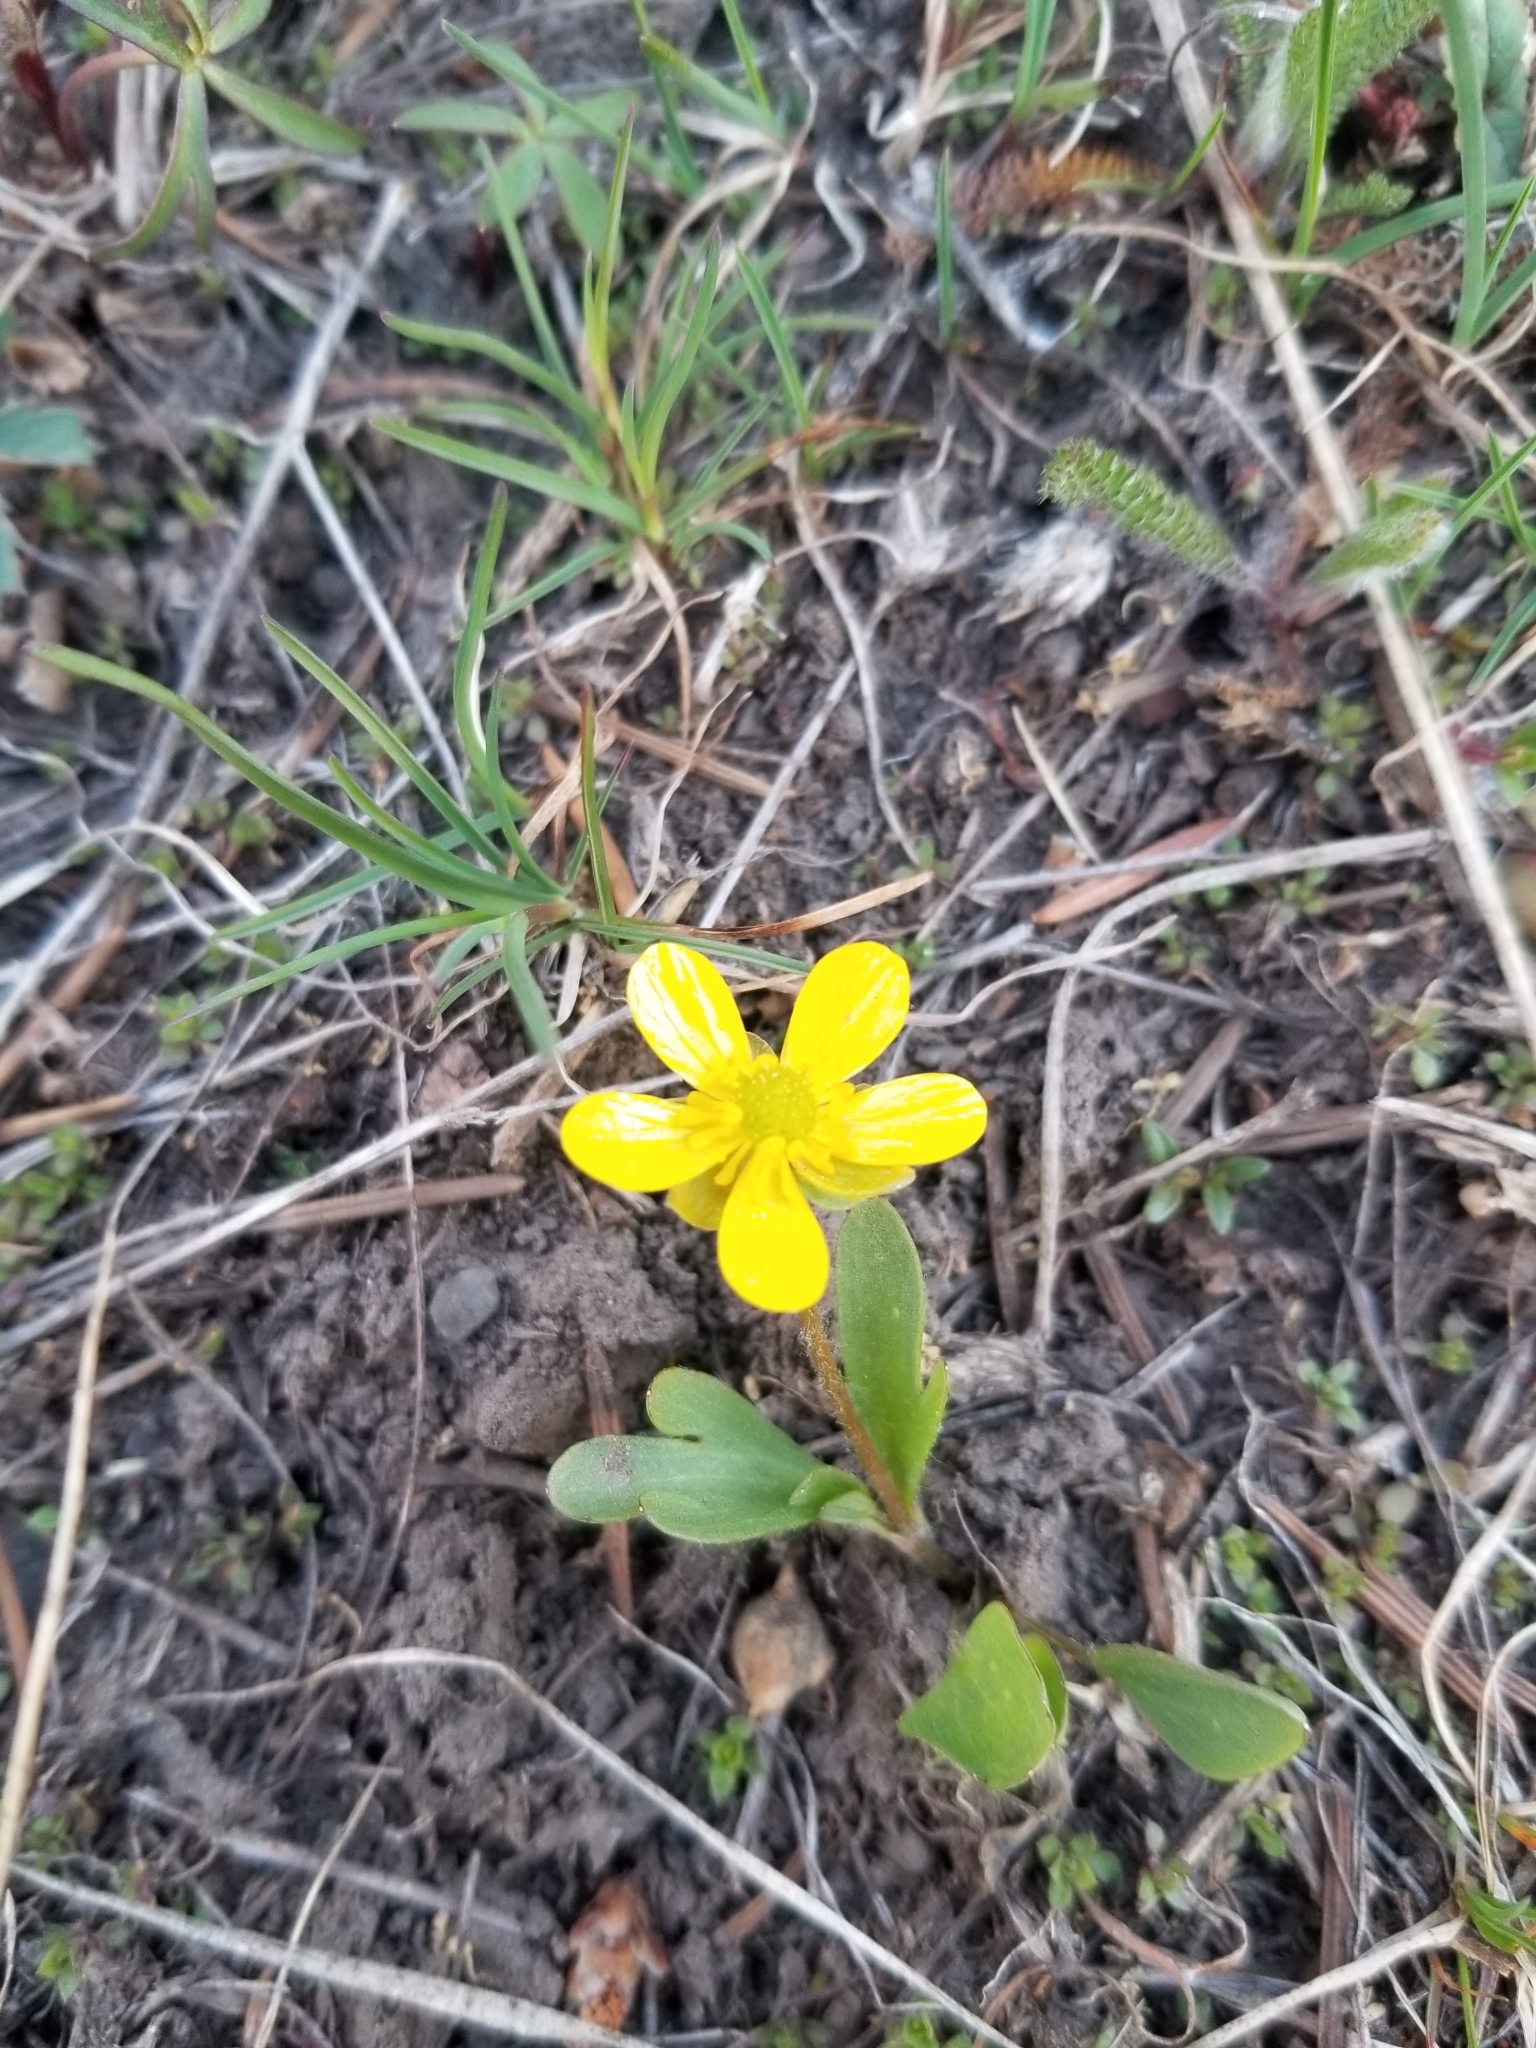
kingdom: Plantae
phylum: Tracheophyta
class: Magnoliopsida
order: Ranunculales
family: Ranunculaceae
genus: Ranunculus
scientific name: Ranunculus glaberrimus
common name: Sagebrush buttercup
